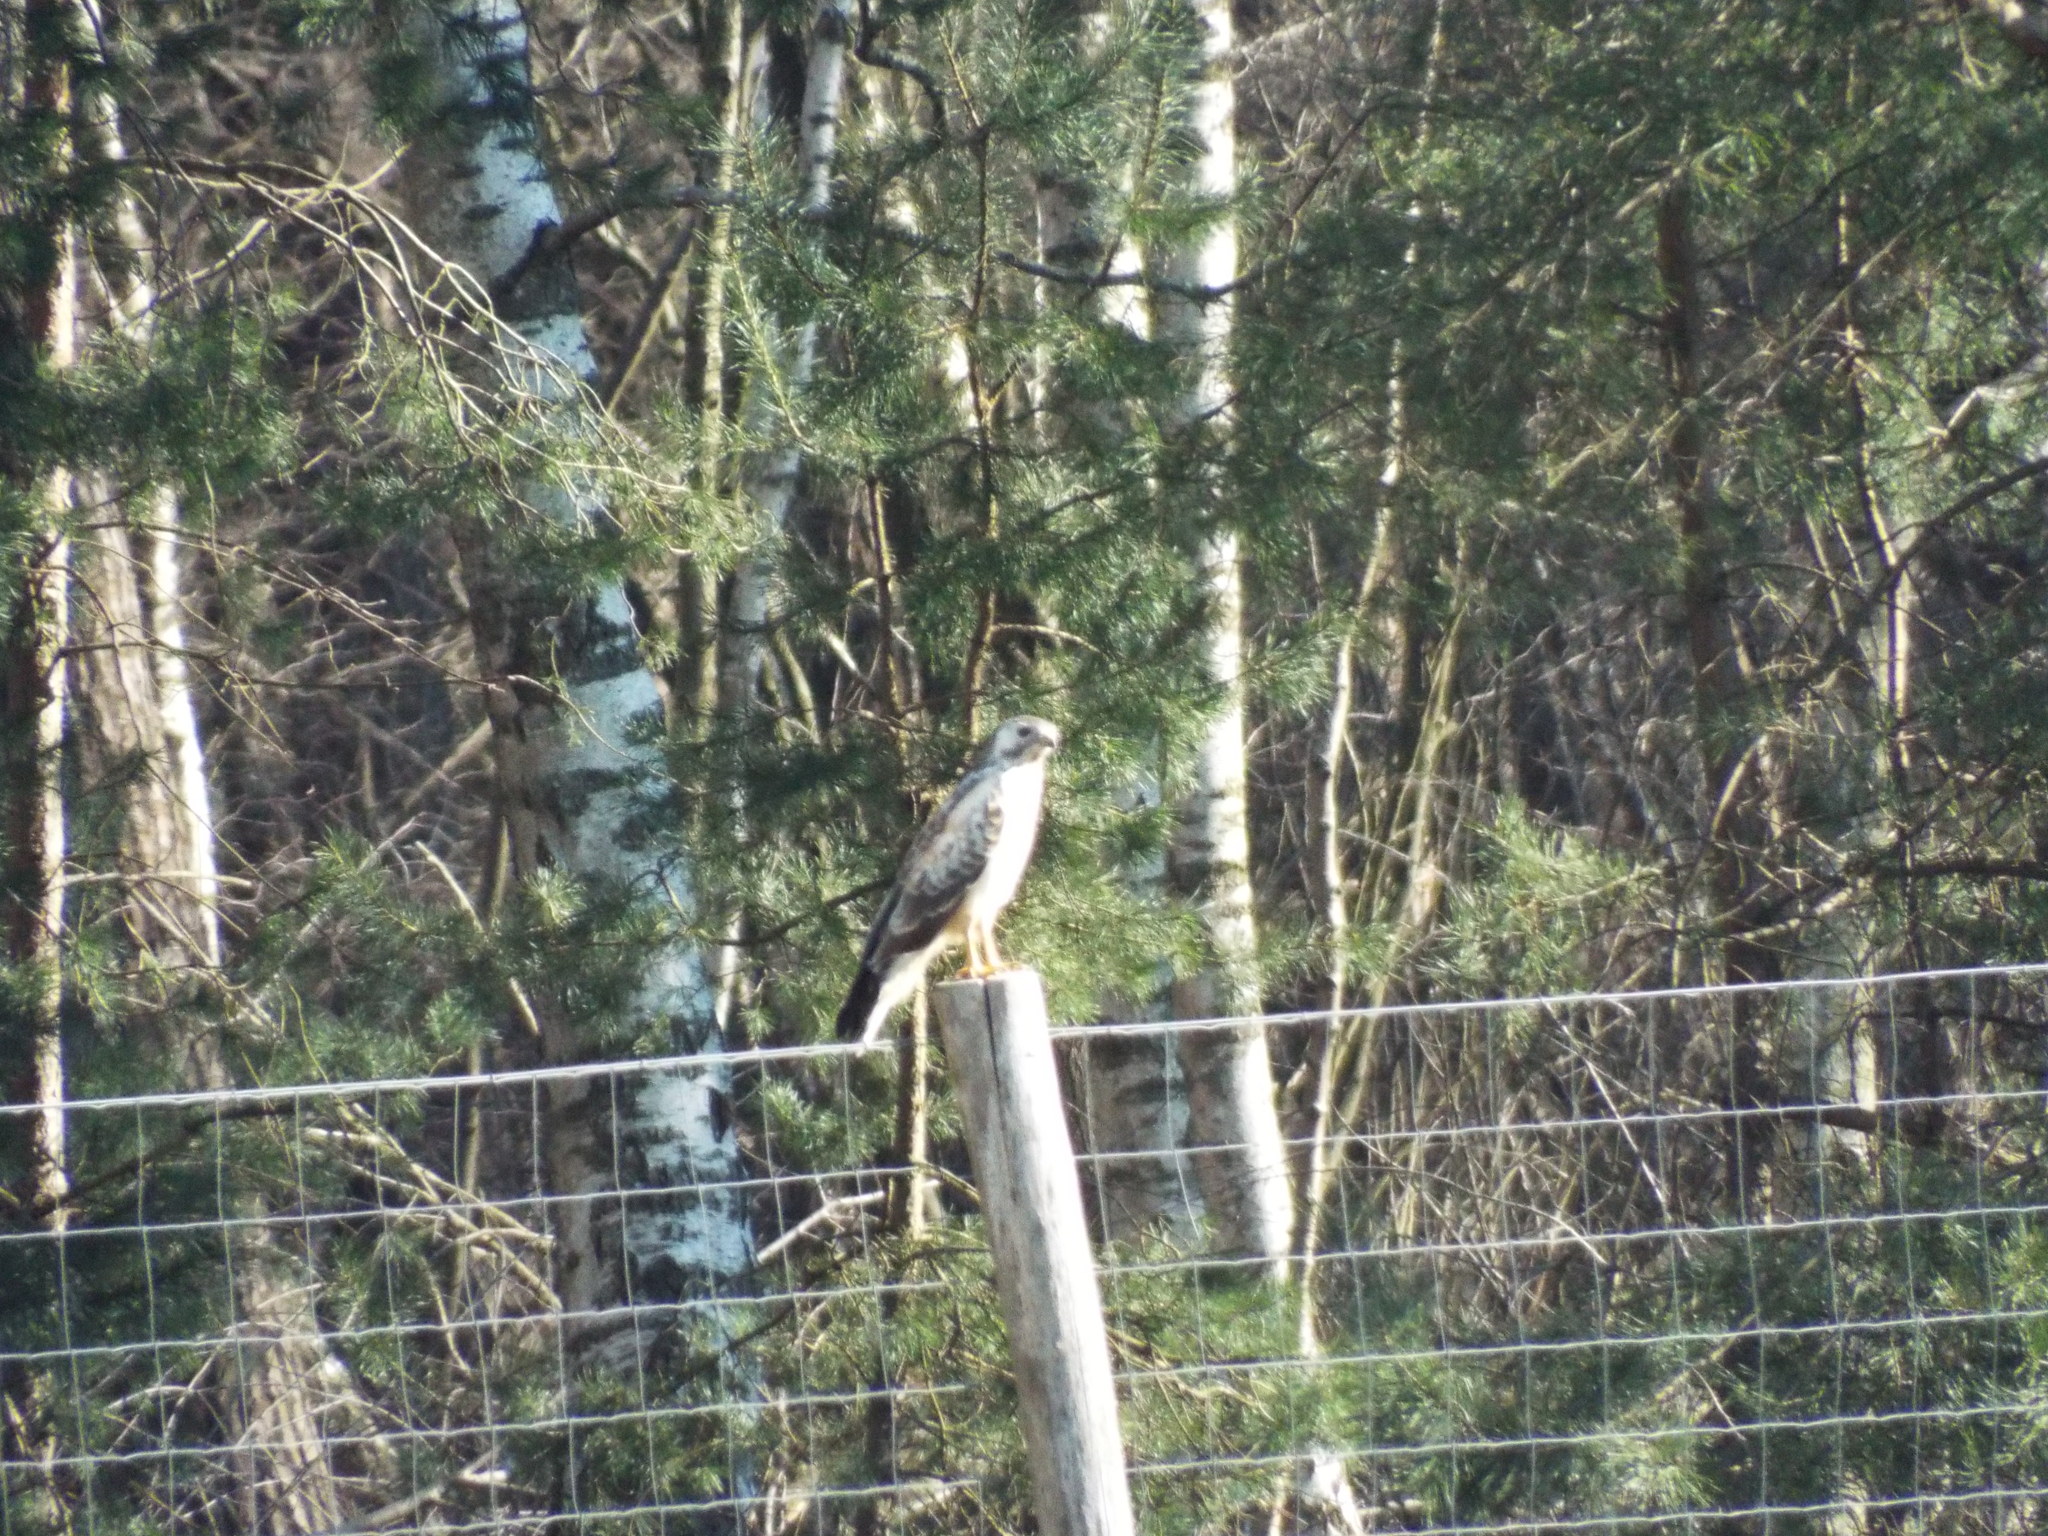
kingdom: Animalia
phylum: Chordata
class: Aves
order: Accipitriformes
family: Accipitridae
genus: Buteo
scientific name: Buteo buteo
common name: Common buzzard
